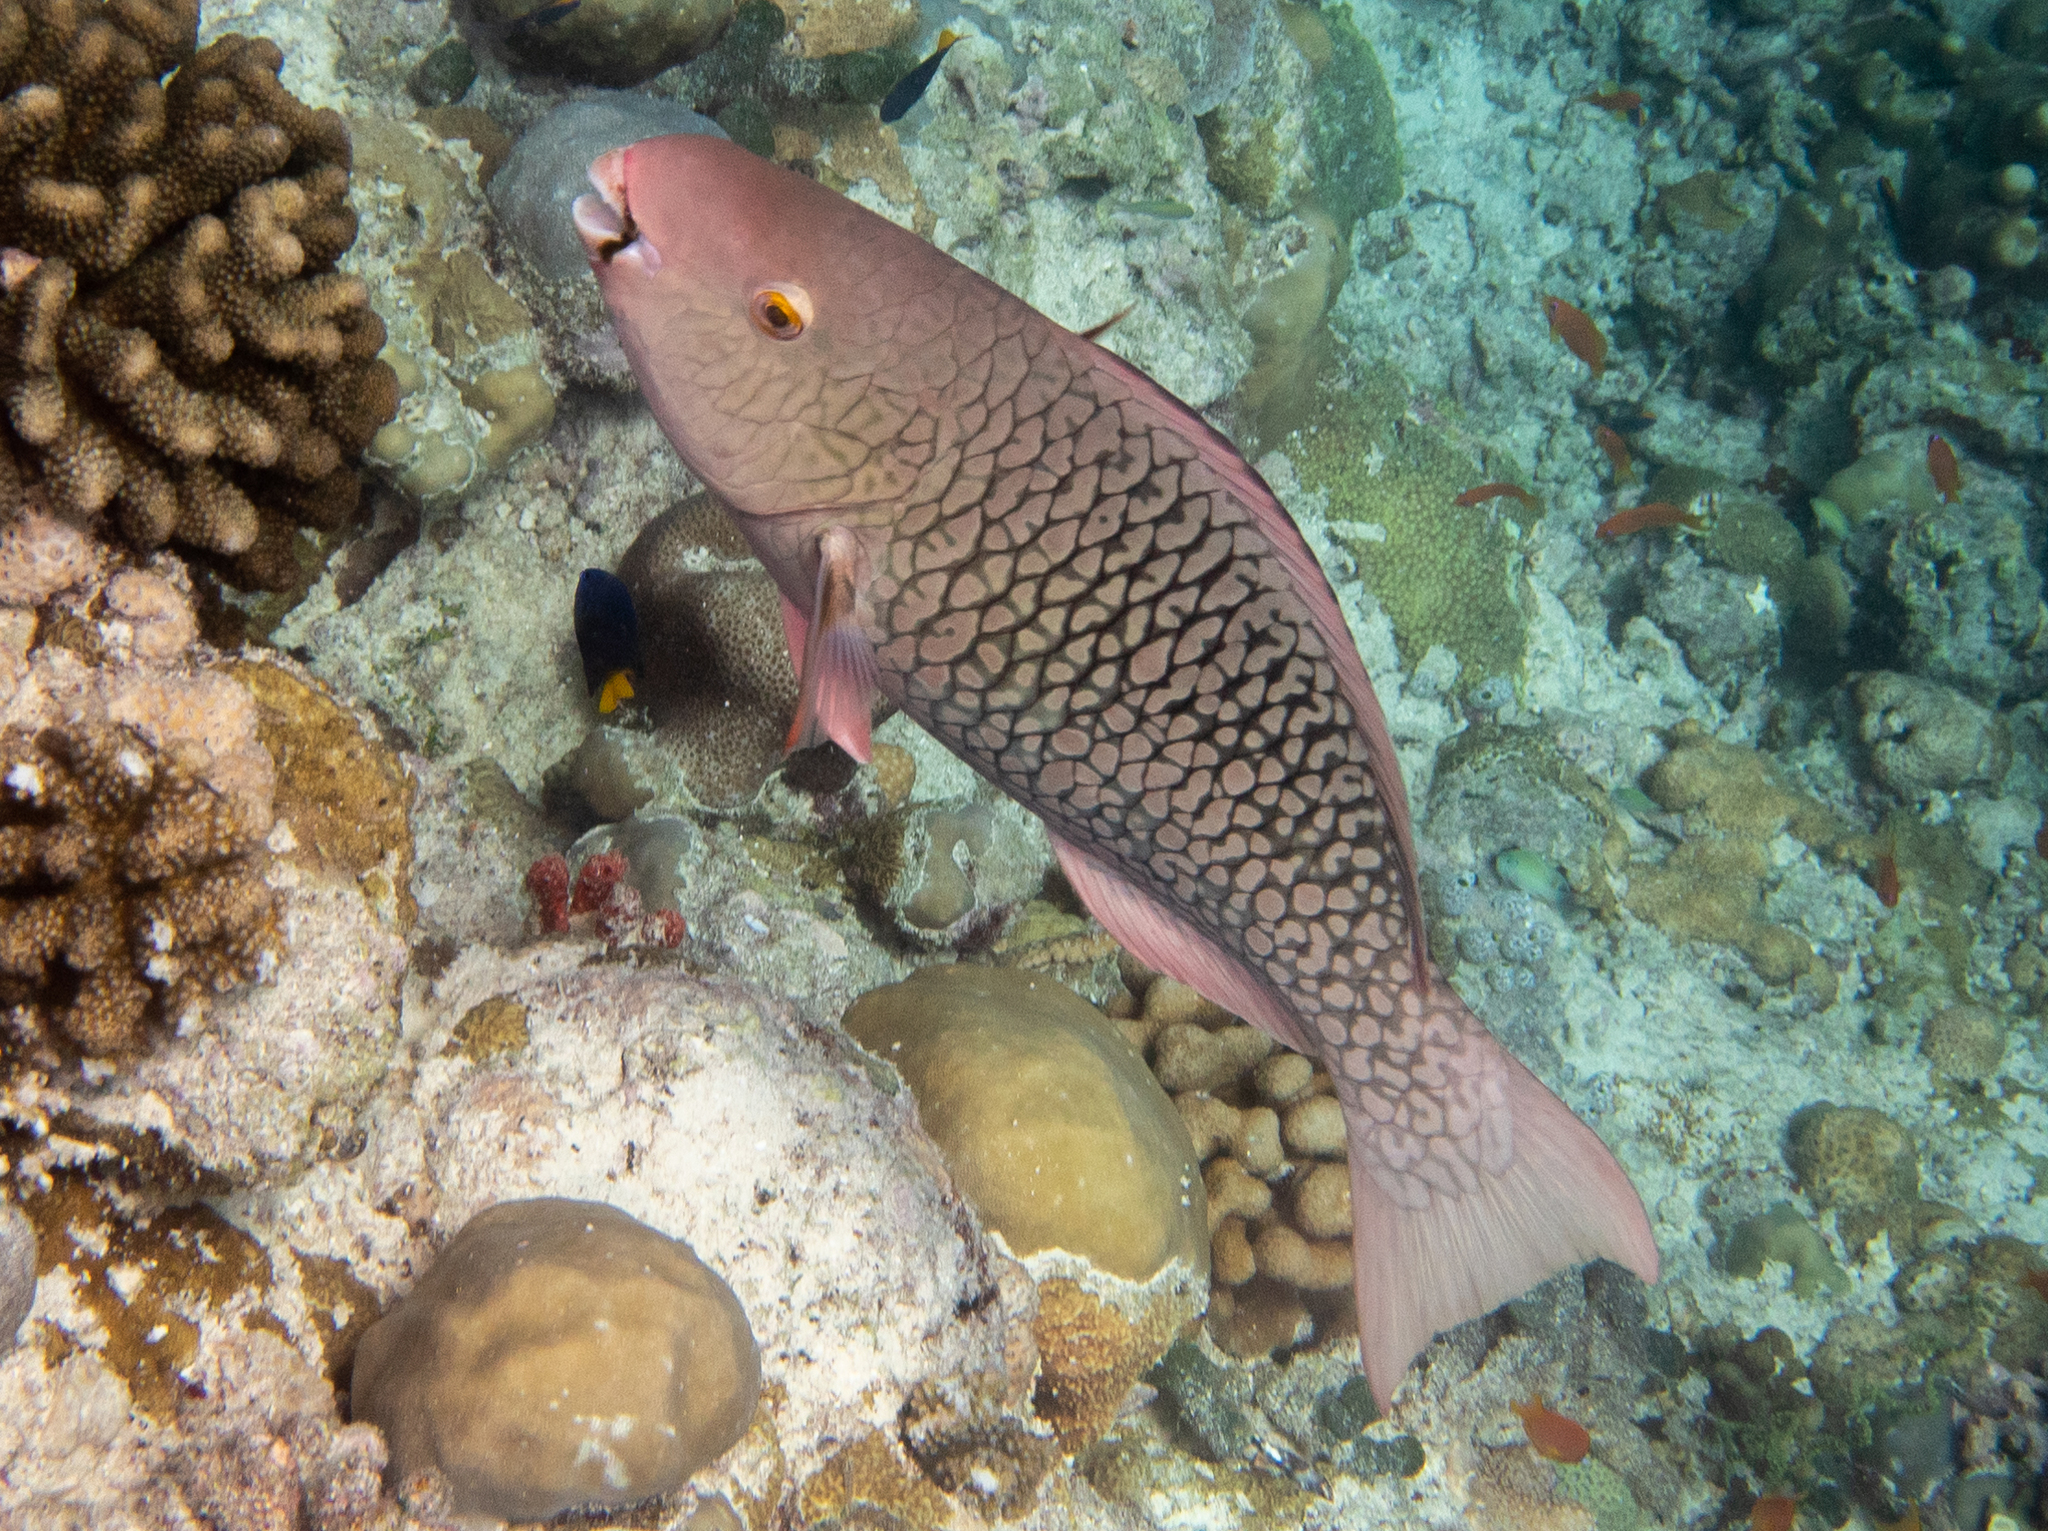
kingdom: Animalia
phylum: Chordata
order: Perciformes
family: Scaridae
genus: Scarus
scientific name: Scarus rubroviolaceus
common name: Ember parrotfish
